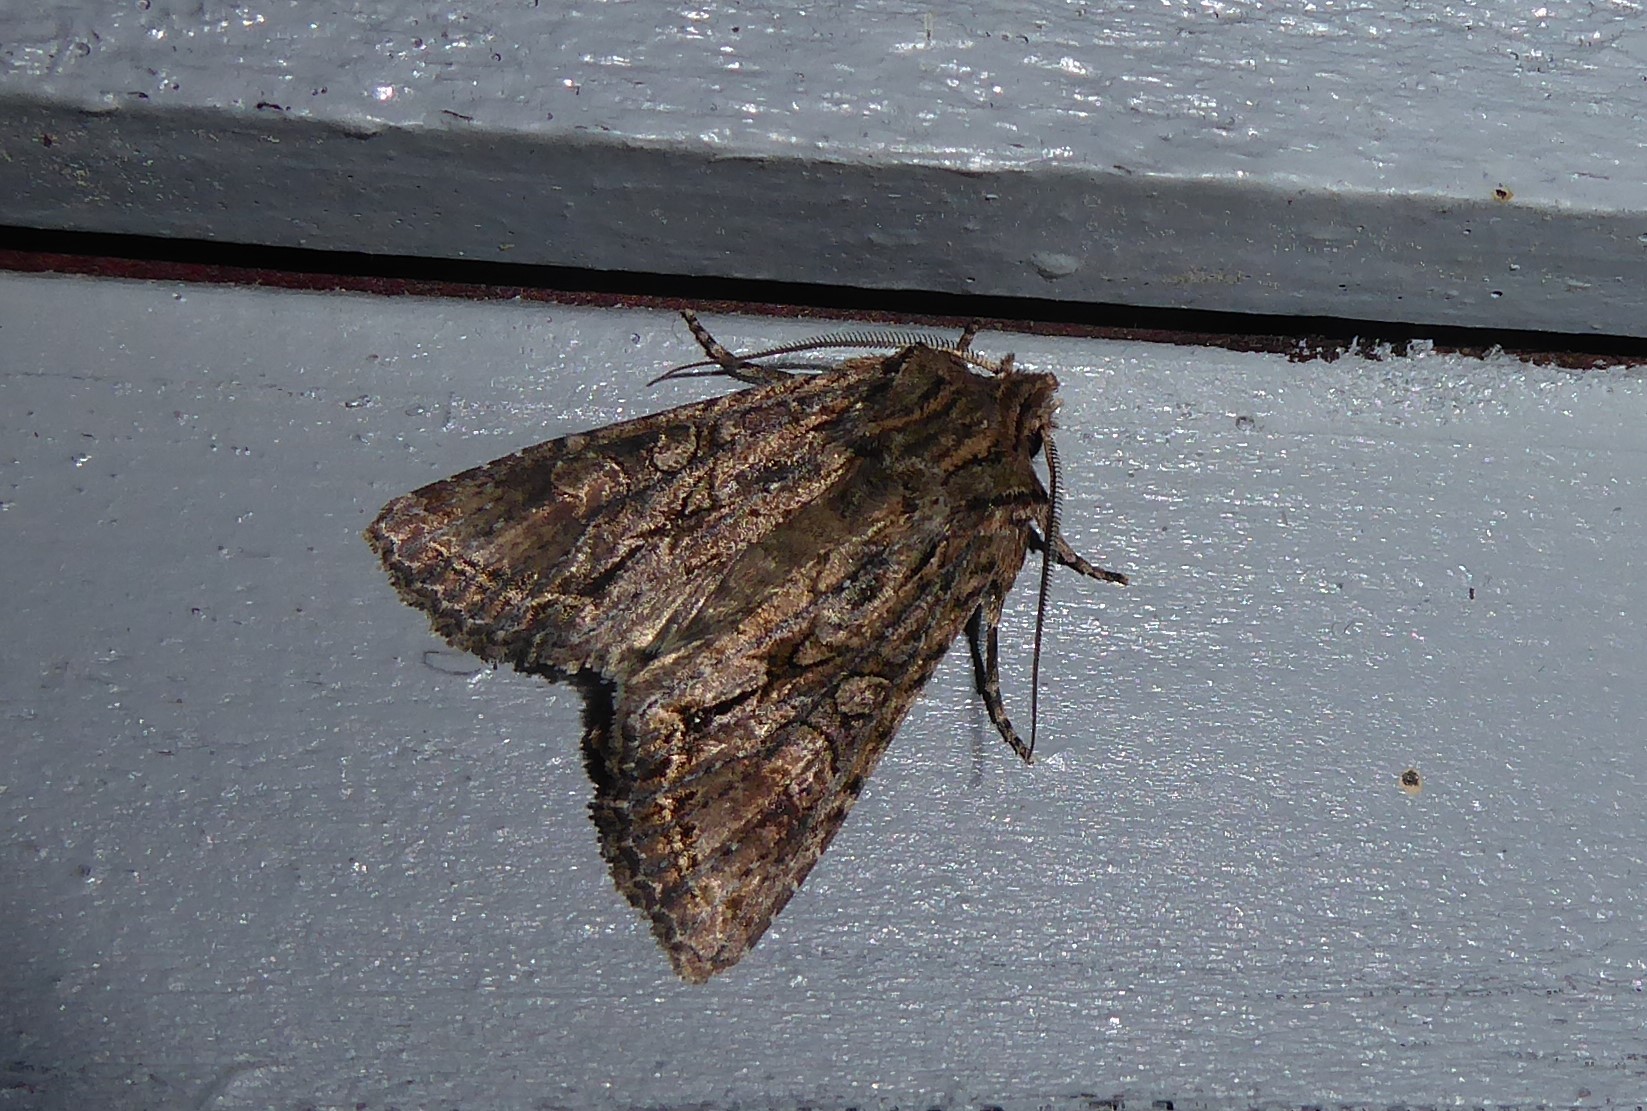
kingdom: Animalia
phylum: Arthropoda
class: Insecta
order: Lepidoptera
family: Noctuidae
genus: Ichneutica
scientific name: Ichneutica mutans
